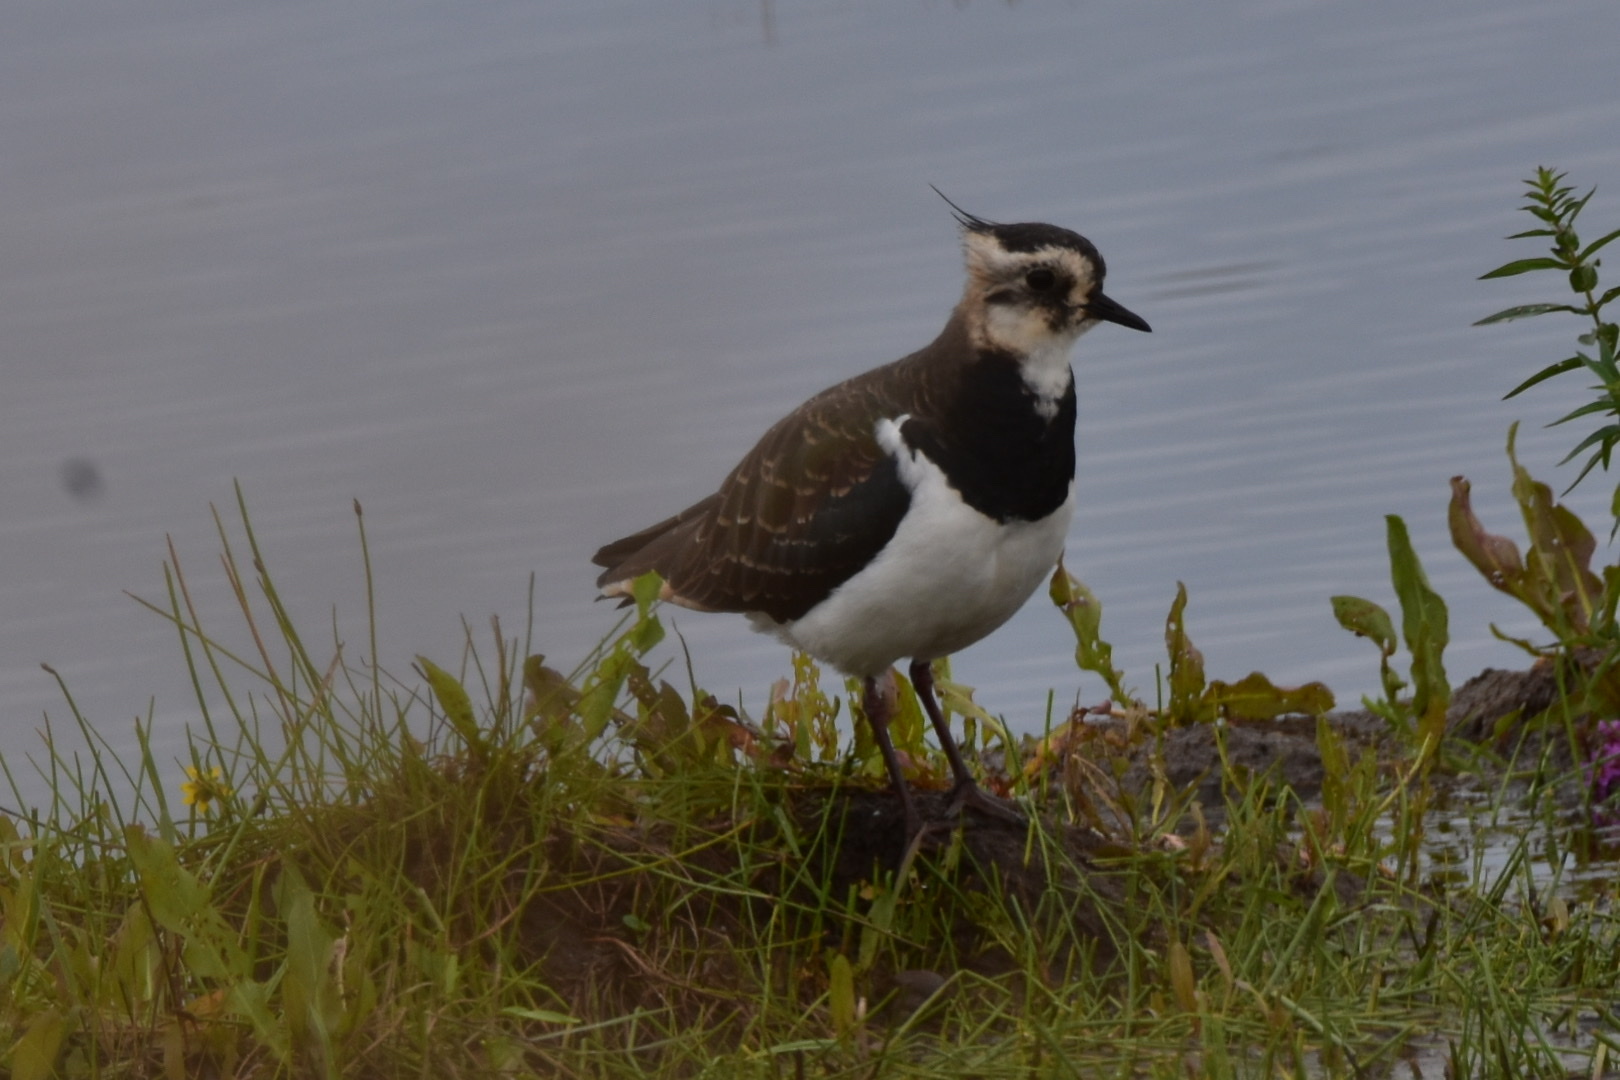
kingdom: Animalia
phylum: Chordata
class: Aves
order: Charadriiformes
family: Charadriidae
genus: Vanellus
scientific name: Vanellus vanellus
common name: Northern lapwing
